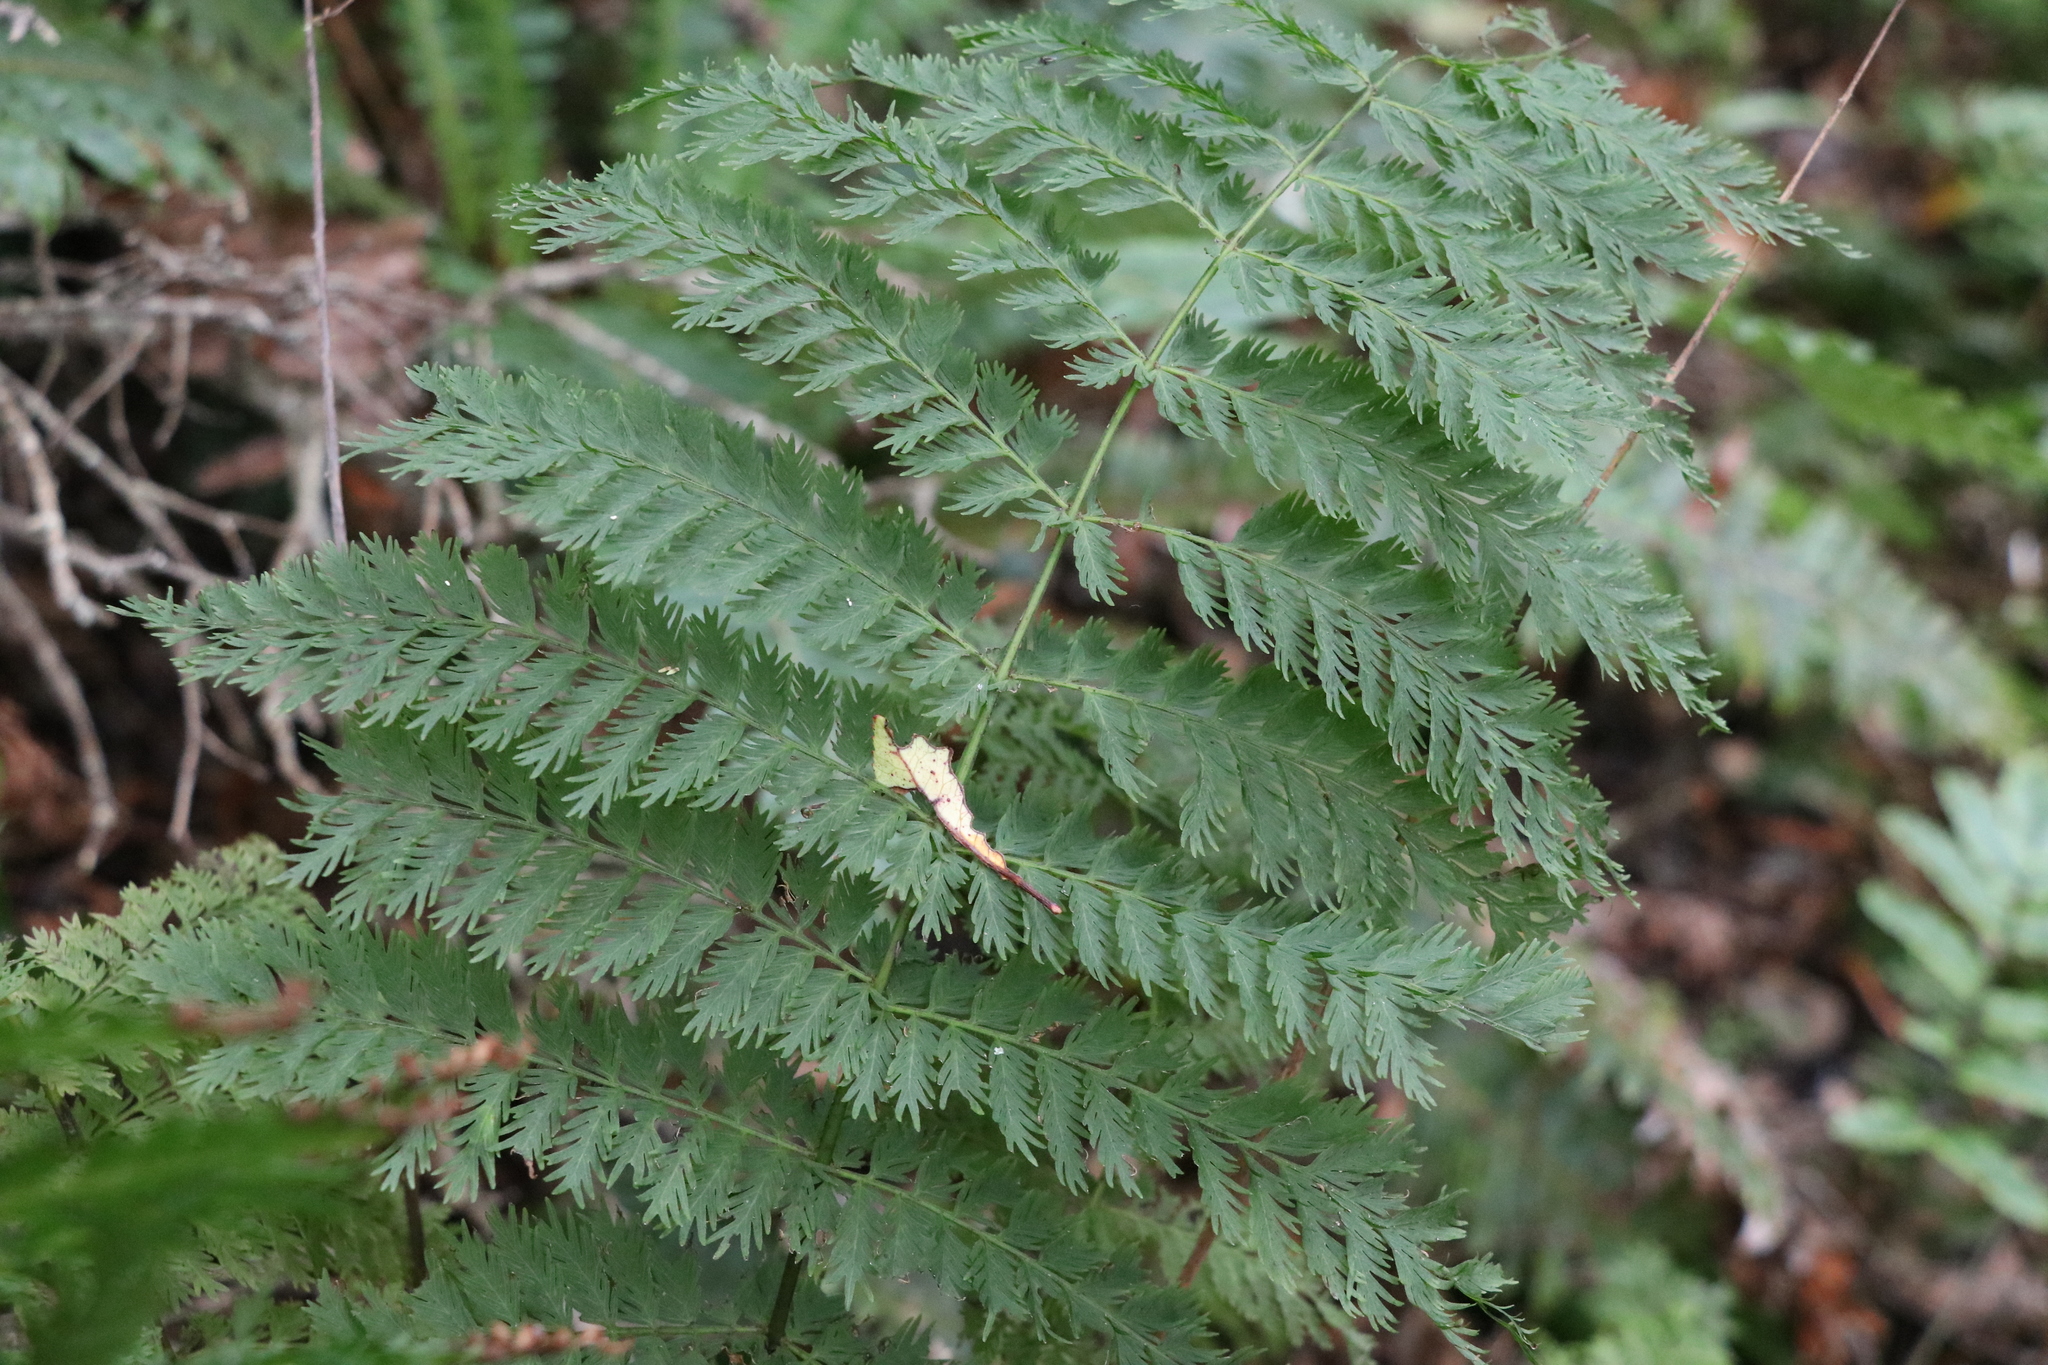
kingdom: Plantae
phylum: Tracheophyta
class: Polypodiopsida
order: Osmundales
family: Osmundaceae
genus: Leptopteris
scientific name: Leptopteris hymenophylloides
